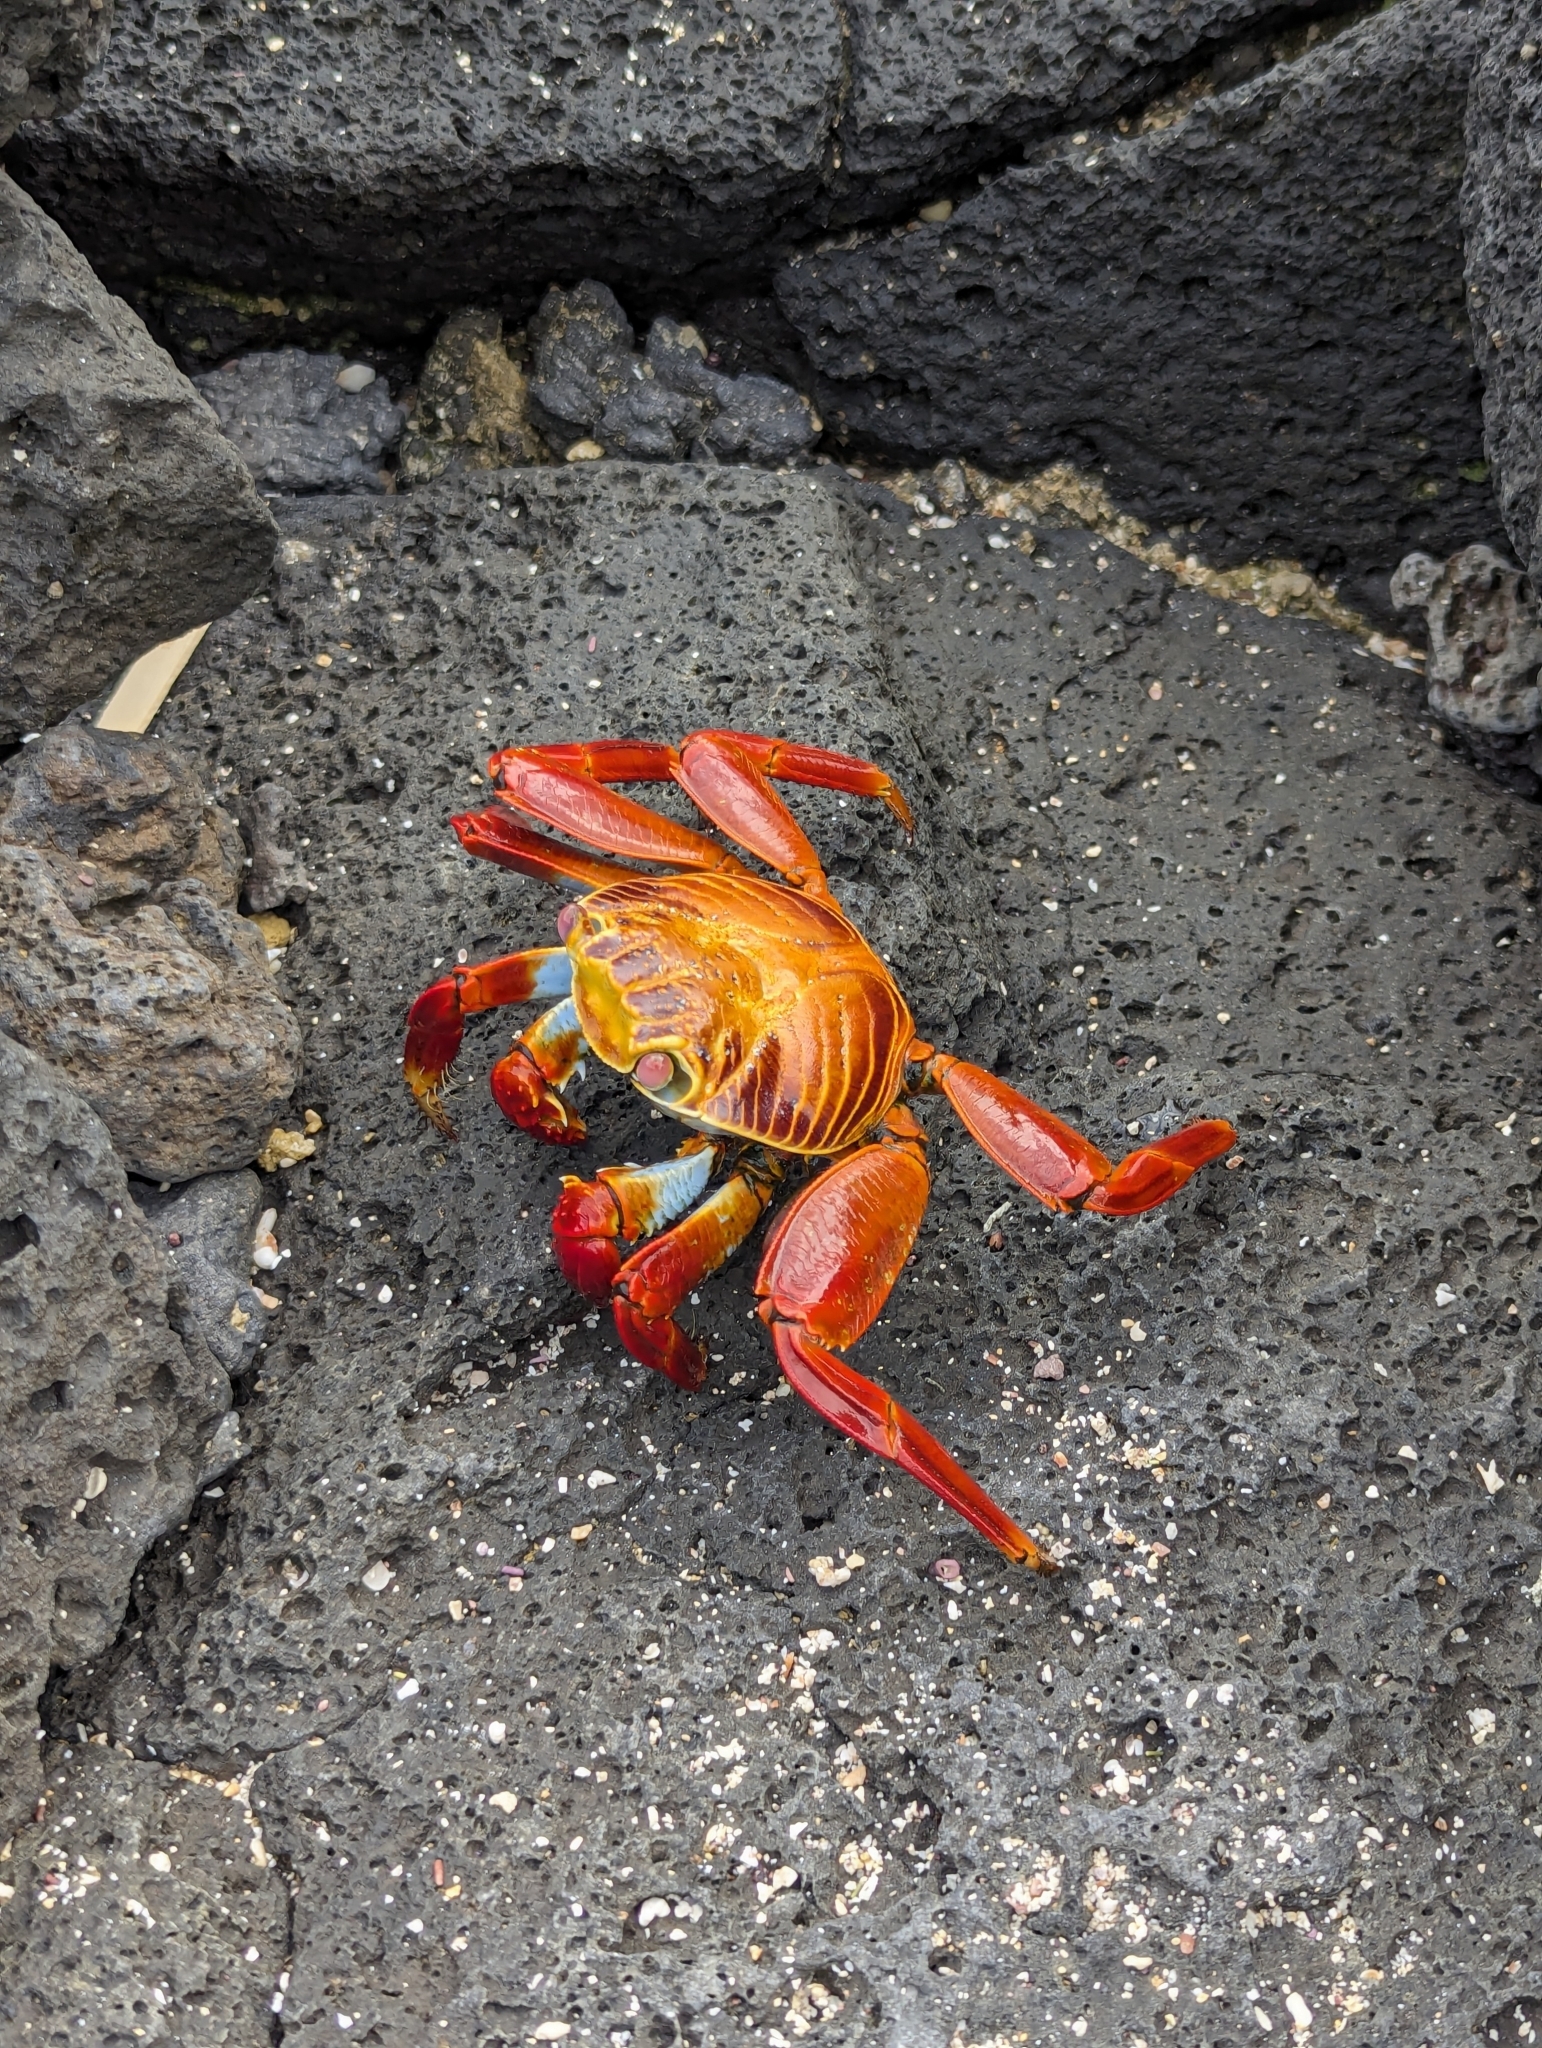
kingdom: Animalia
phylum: Arthropoda
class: Malacostraca
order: Decapoda
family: Grapsidae
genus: Grapsus
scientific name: Grapsus grapsus
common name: Sally lightfoot
